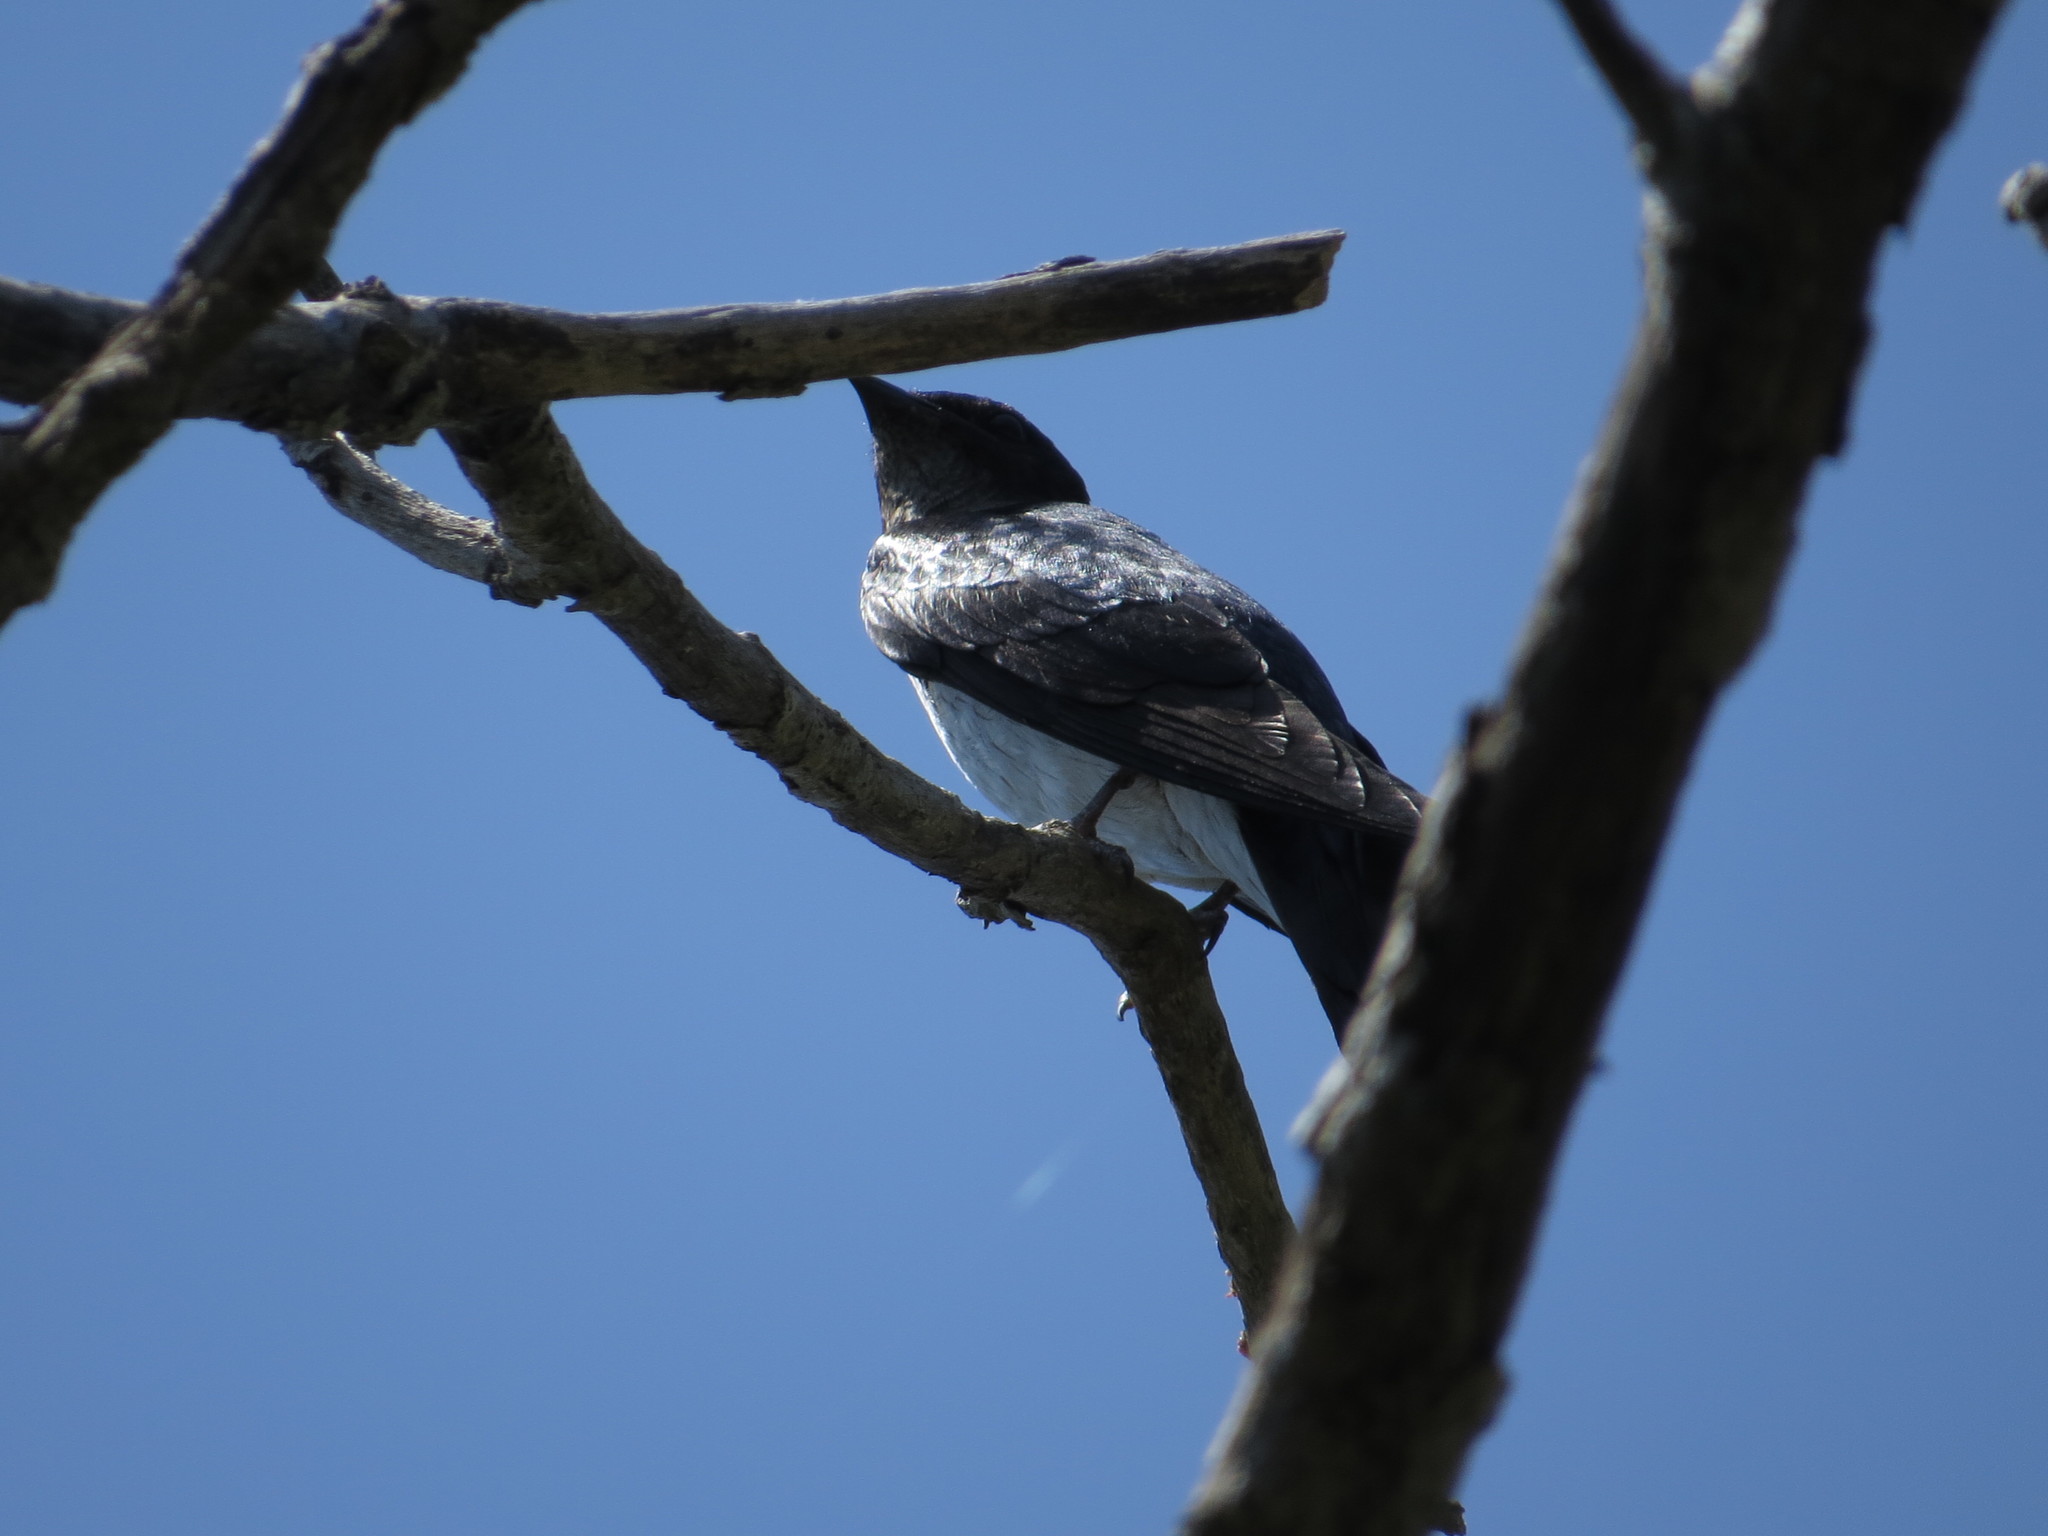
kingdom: Animalia
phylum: Chordata
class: Aves
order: Passeriformes
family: Hirundinidae
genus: Progne
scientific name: Progne chalybea
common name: Grey-breasted martin
